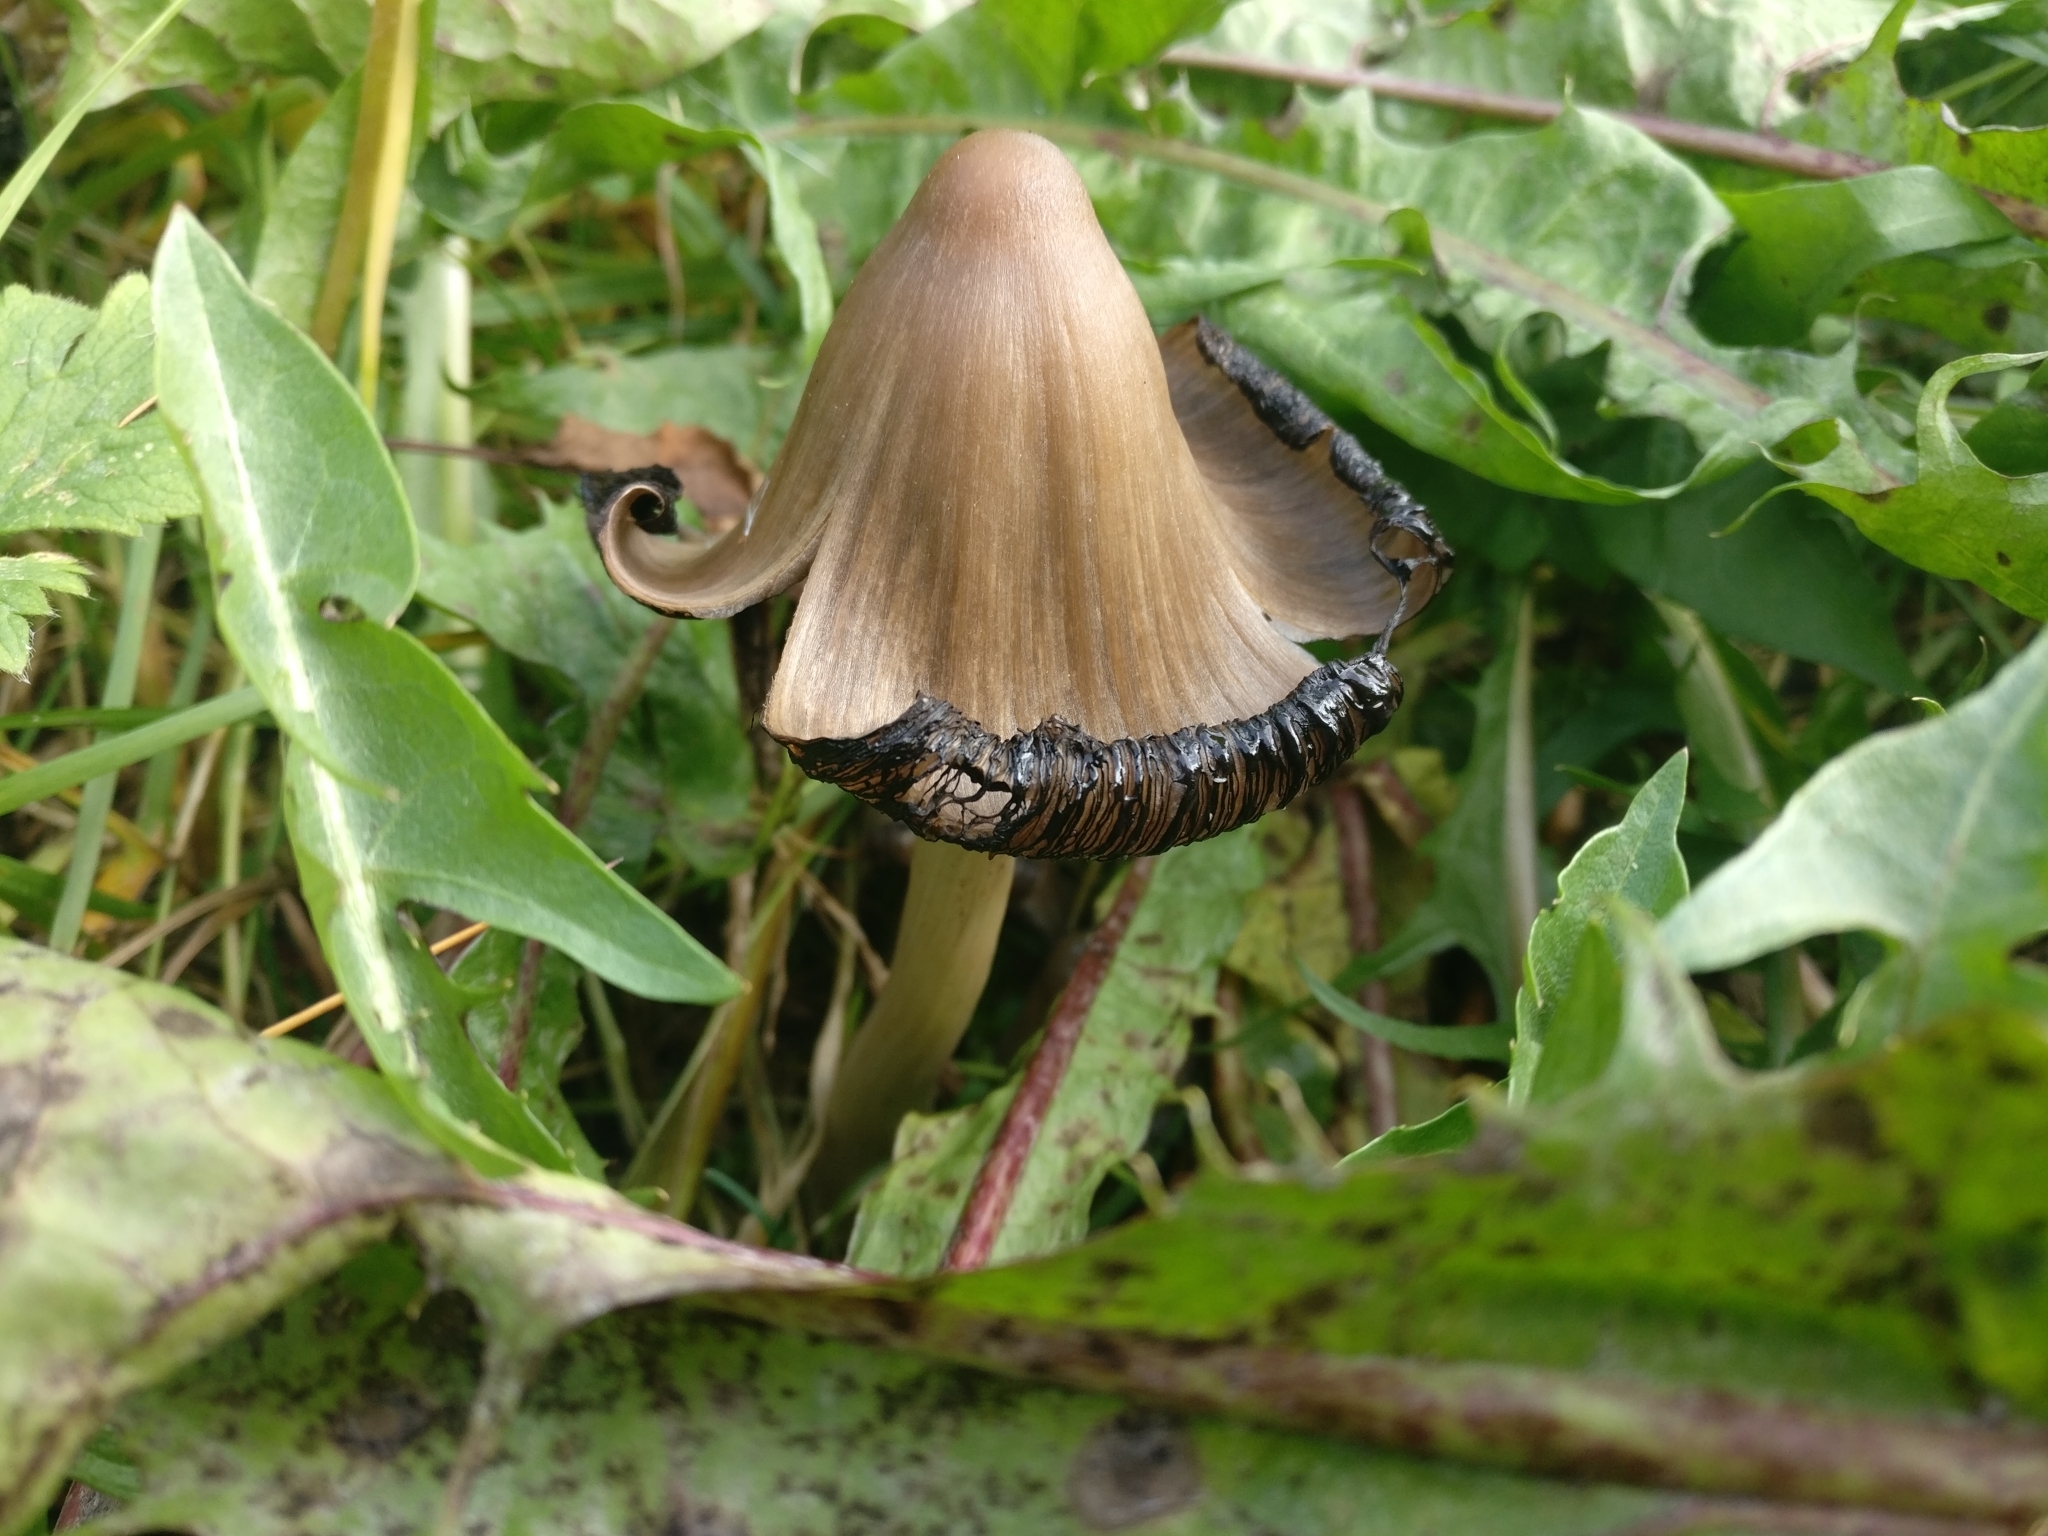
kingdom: Fungi
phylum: Basidiomycota
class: Agaricomycetes
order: Agaricales
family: Psathyrellaceae
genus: Coprinopsis
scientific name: Coprinopsis atramentaria
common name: Common ink-cap
